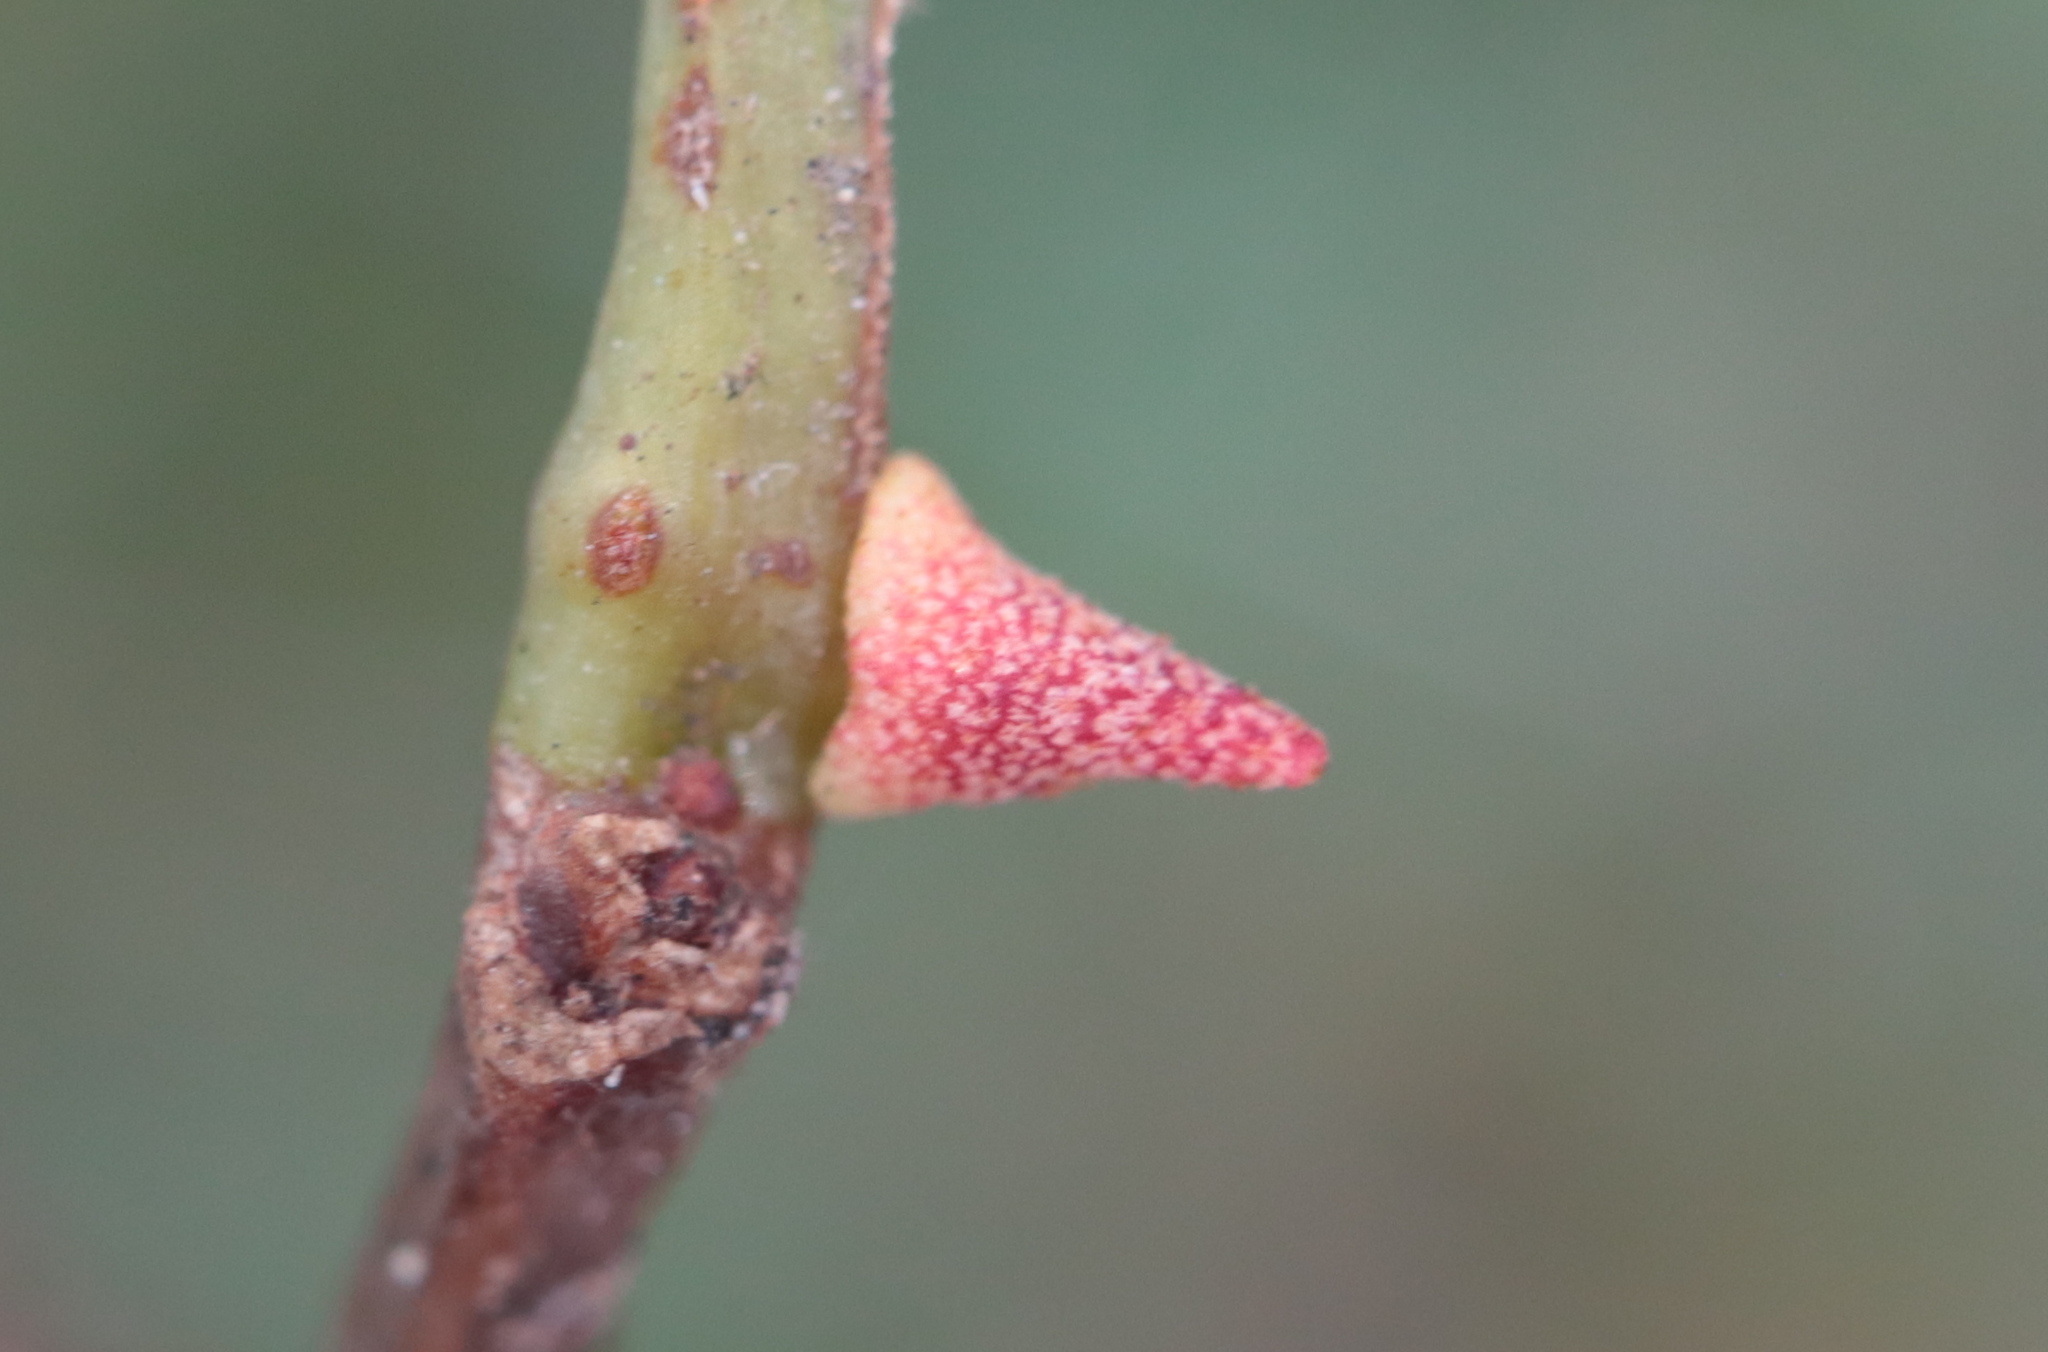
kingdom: Animalia
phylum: Arthropoda
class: Insecta
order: Hymenoptera
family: Cynipidae
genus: Zopheroteras
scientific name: Zopheroteras
